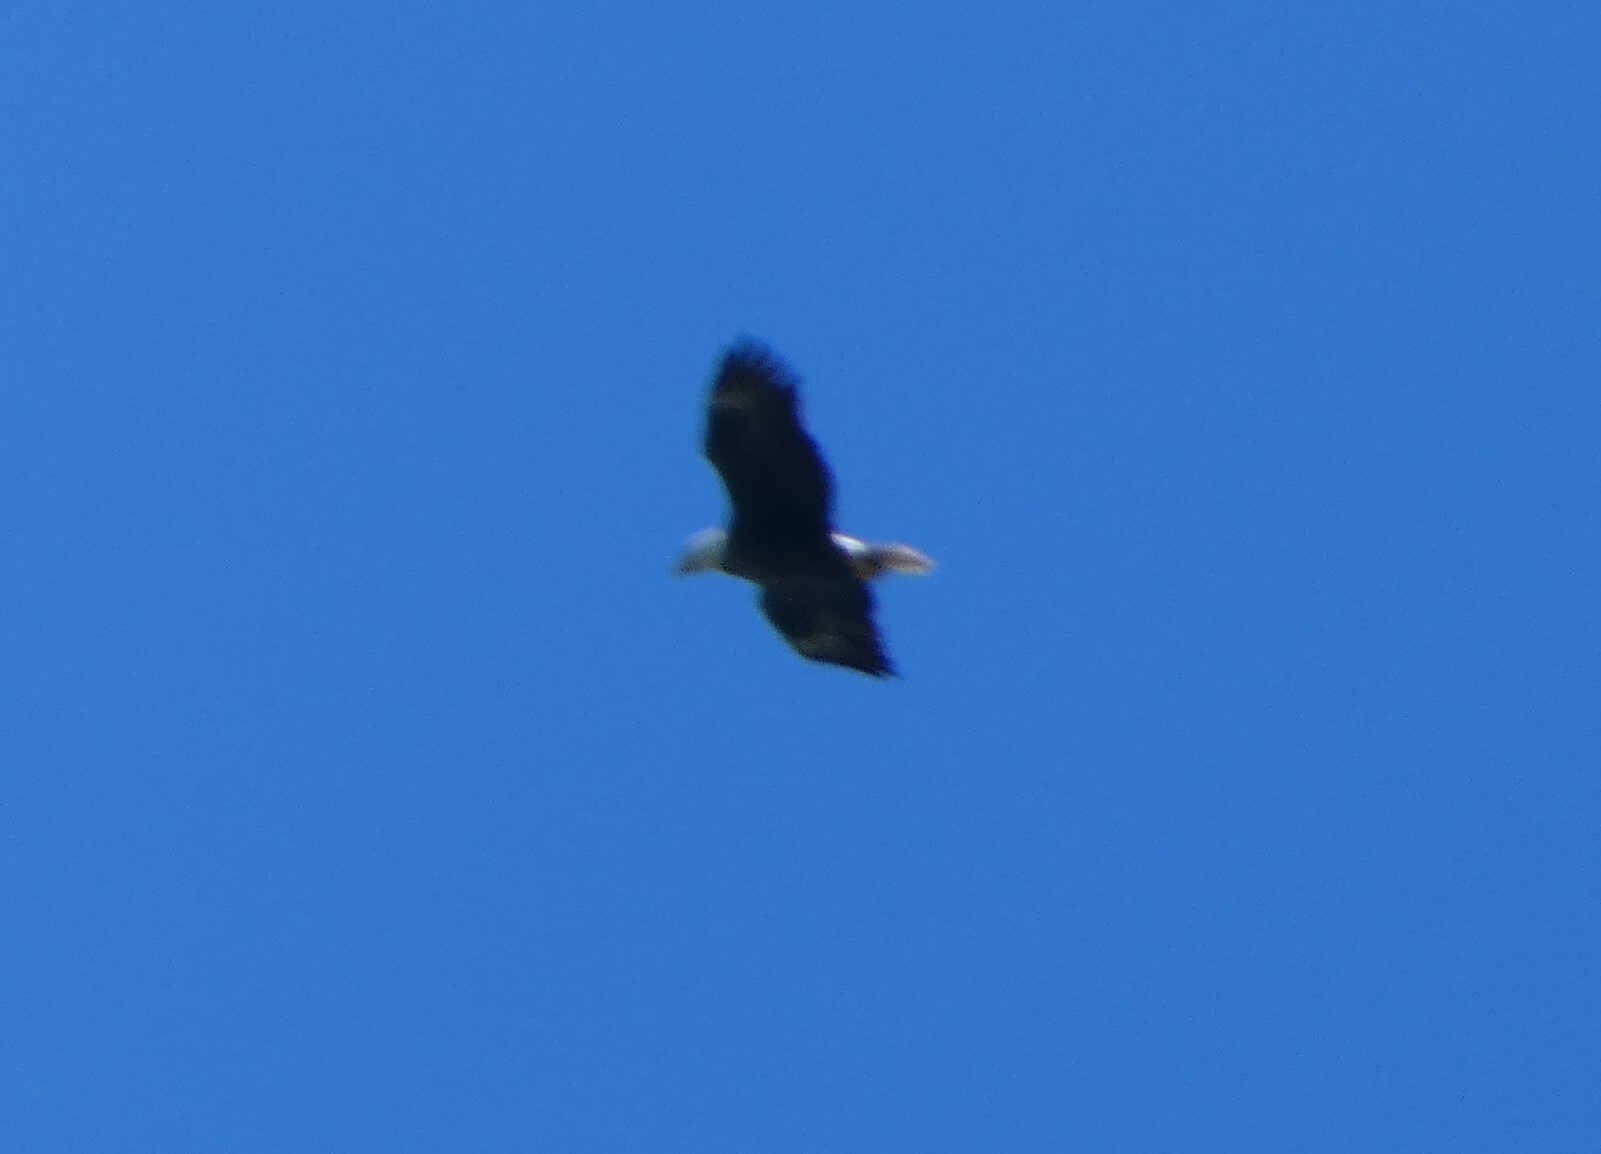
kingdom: Animalia
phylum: Chordata
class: Aves
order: Accipitriformes
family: Accipitridae
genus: Haliaeetus
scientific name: Haliaeetus leucocephalus
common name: Bald eagle
